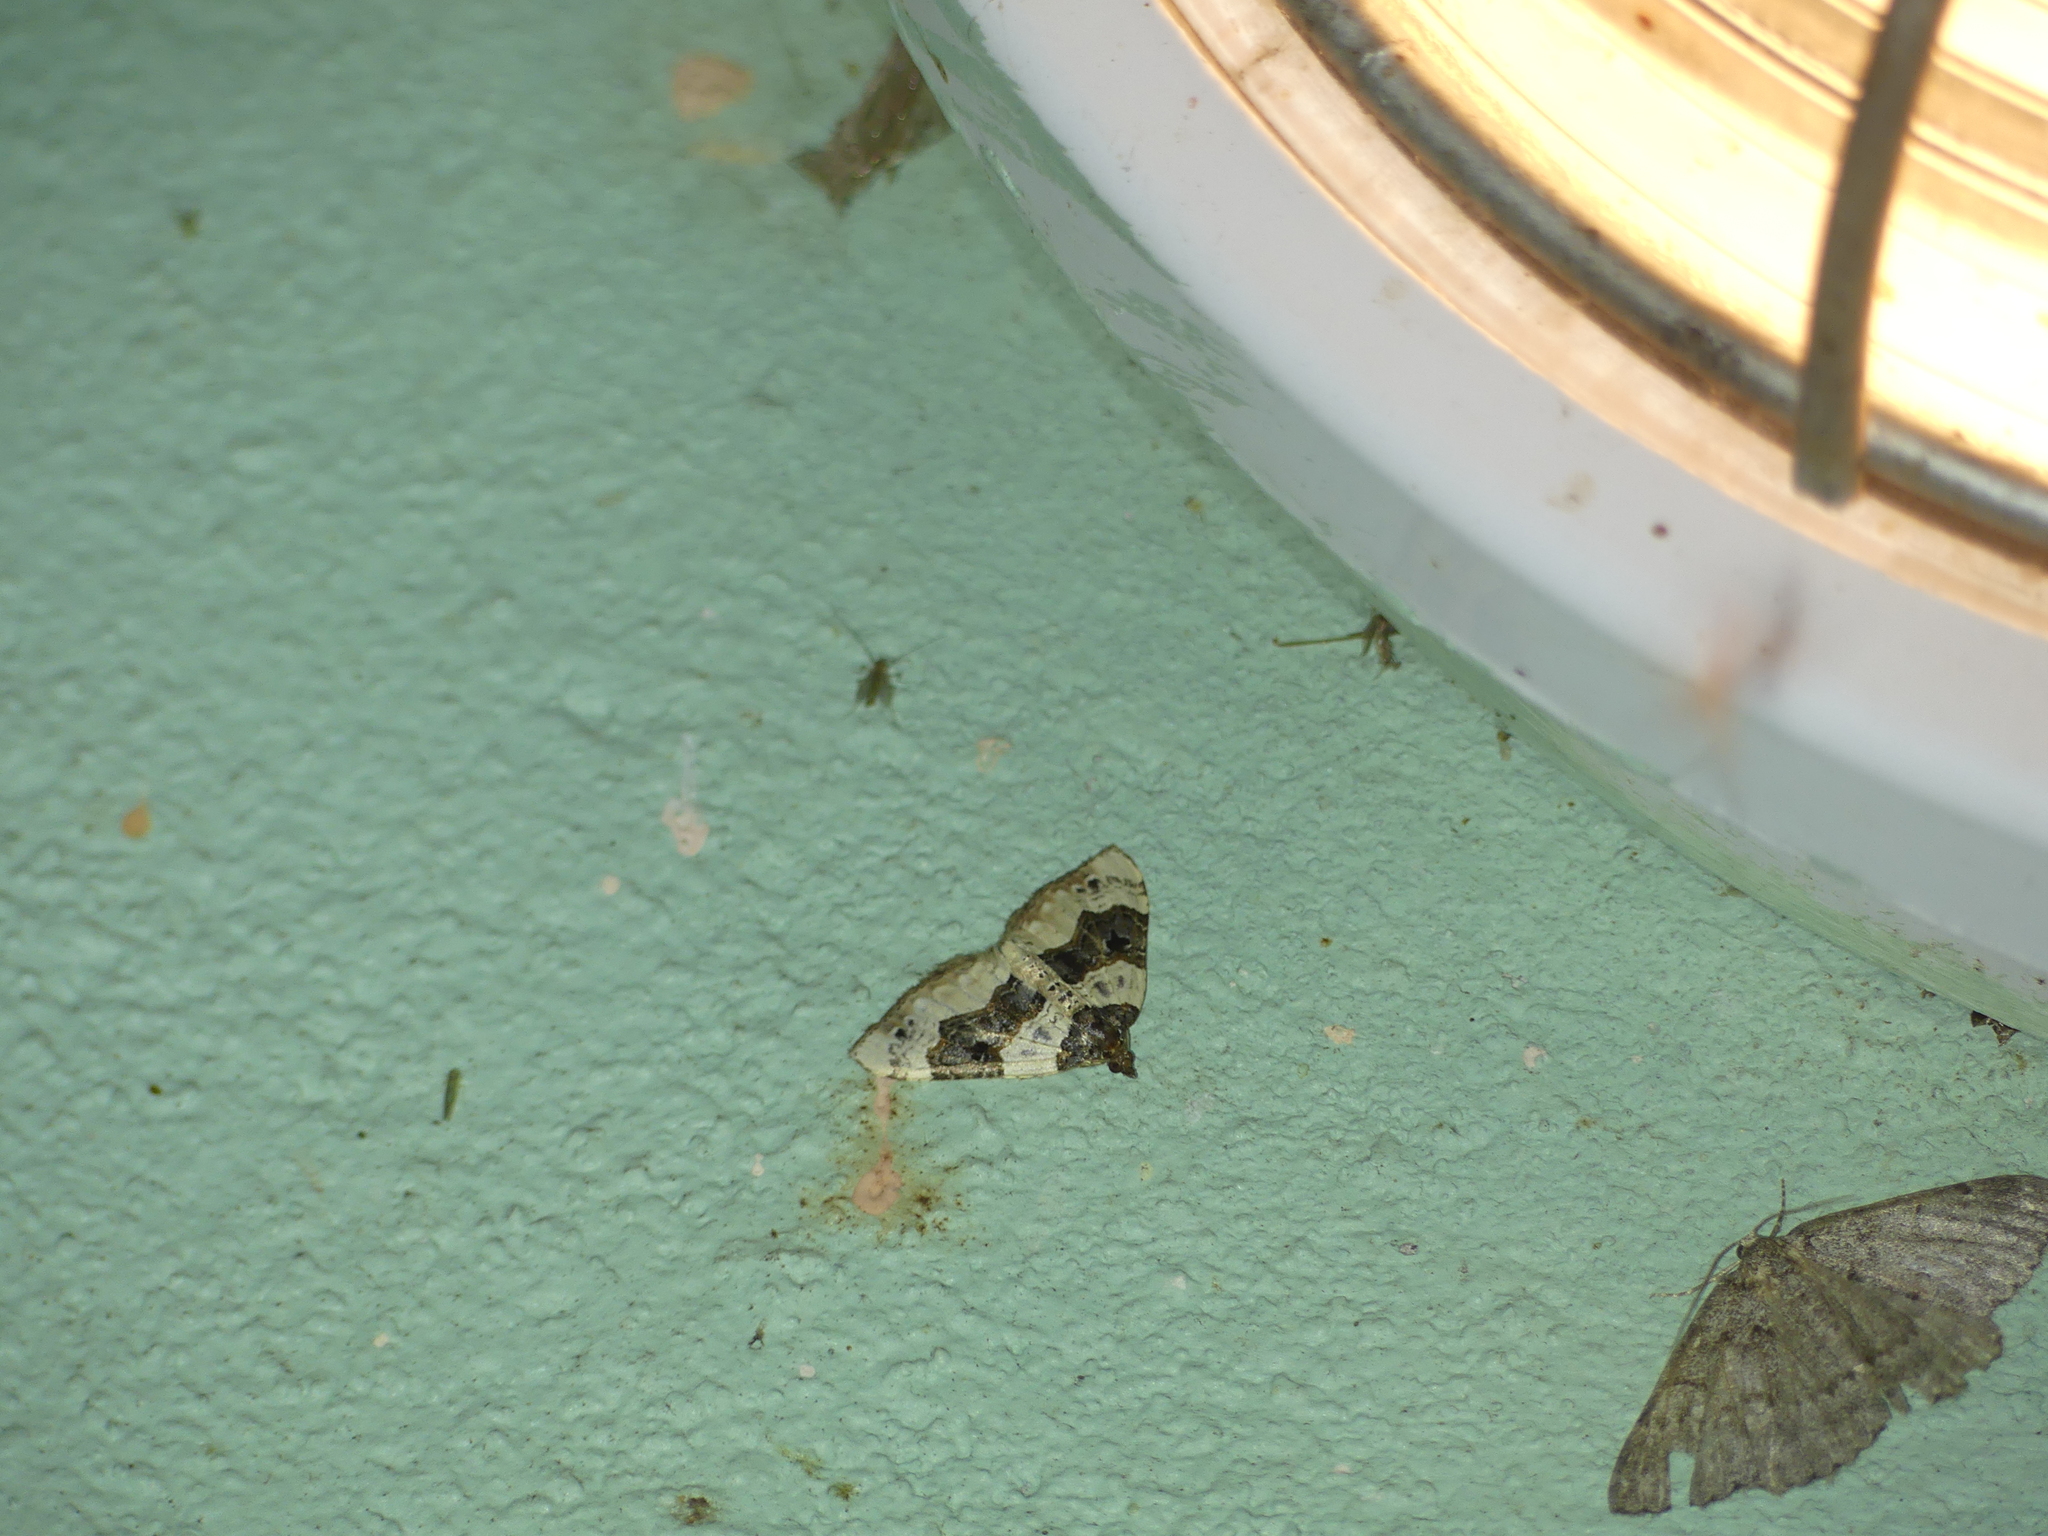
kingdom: Animalia
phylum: Arthropoda
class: Insecta
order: Lepidoptera
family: Geometridae
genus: Cosmorhoe
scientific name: Cosmorhoe ocellata
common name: Purple bar
